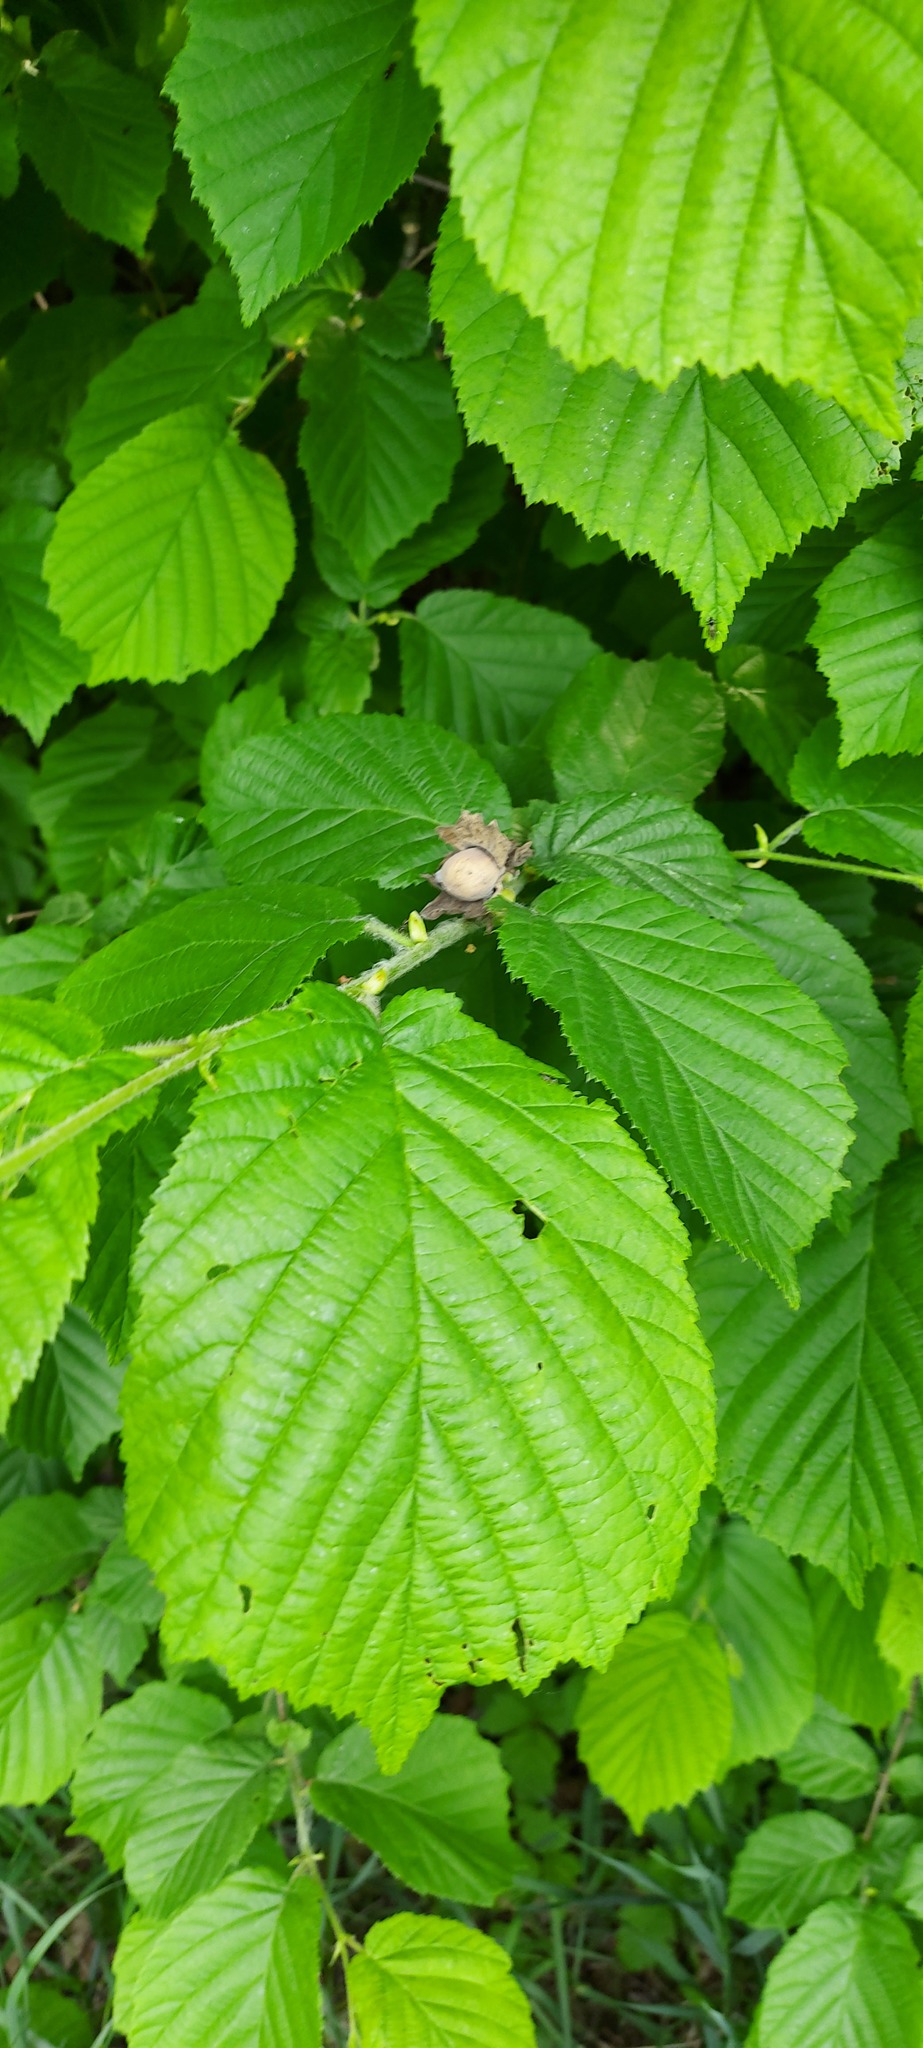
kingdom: Plantae
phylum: Tracheophyta
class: Magnoliopsida
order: Fagales
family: Betulaceae
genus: Corylus
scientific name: Corylus avellana
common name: European hazel
